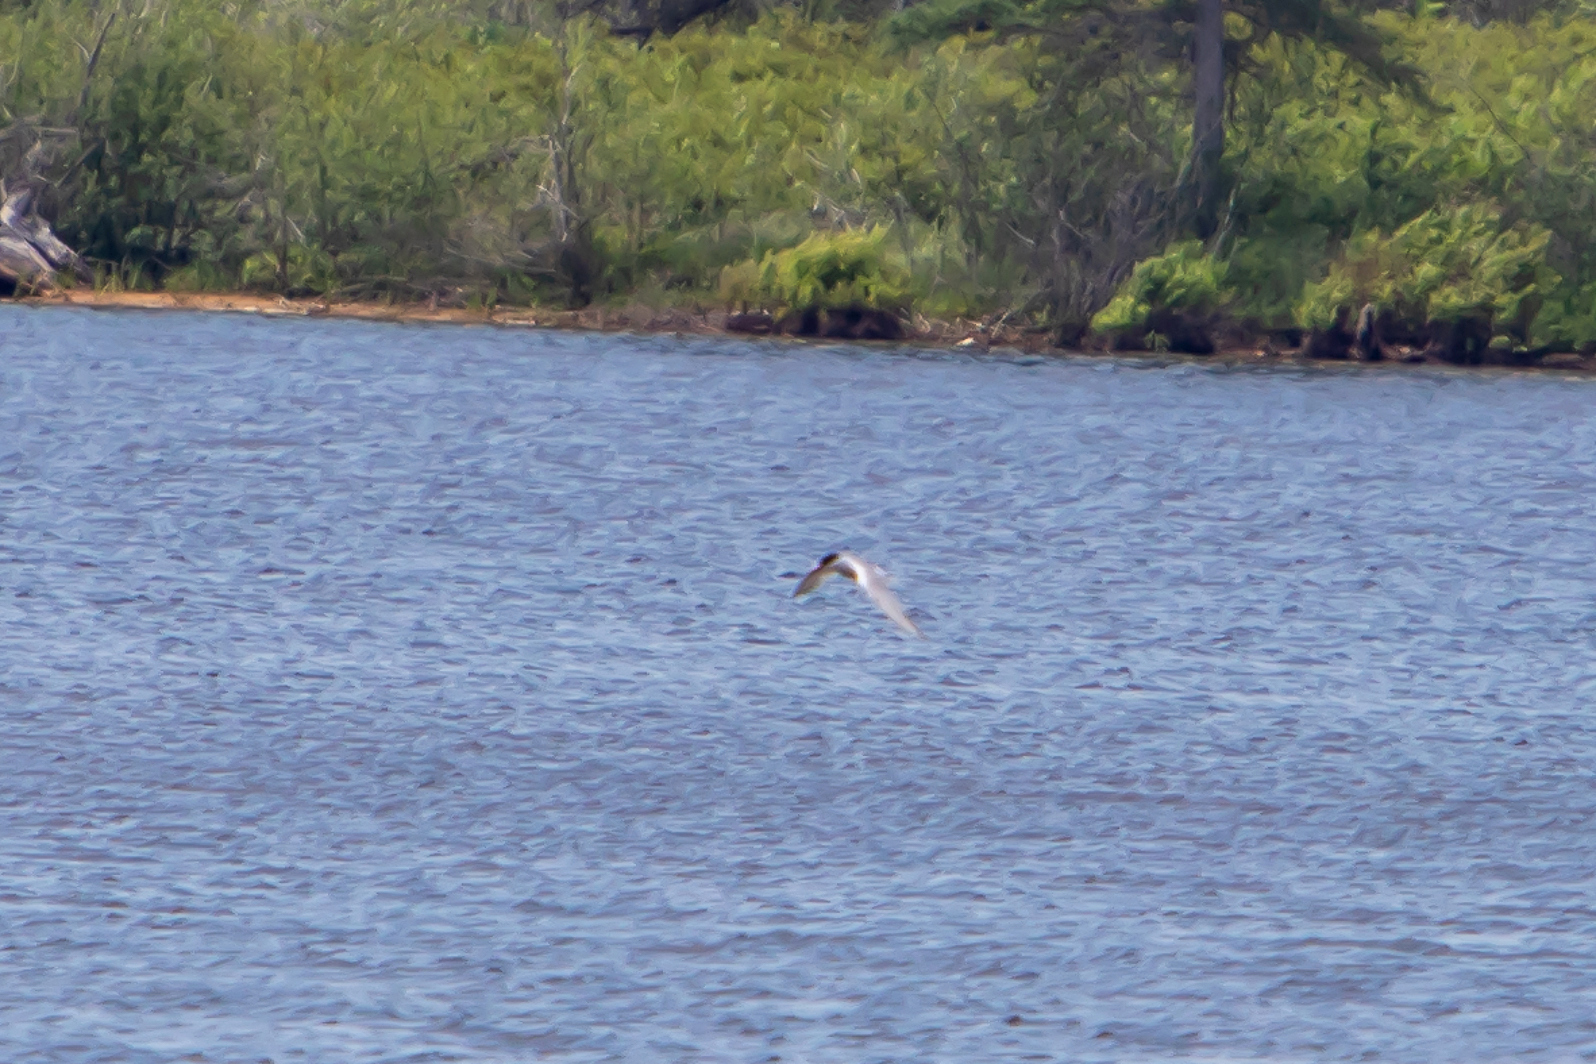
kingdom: Animalia
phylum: Chordata
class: Aves
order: Charadriiformes
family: Laridae
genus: Sterna
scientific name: Sterna hirundo
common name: Common tern
